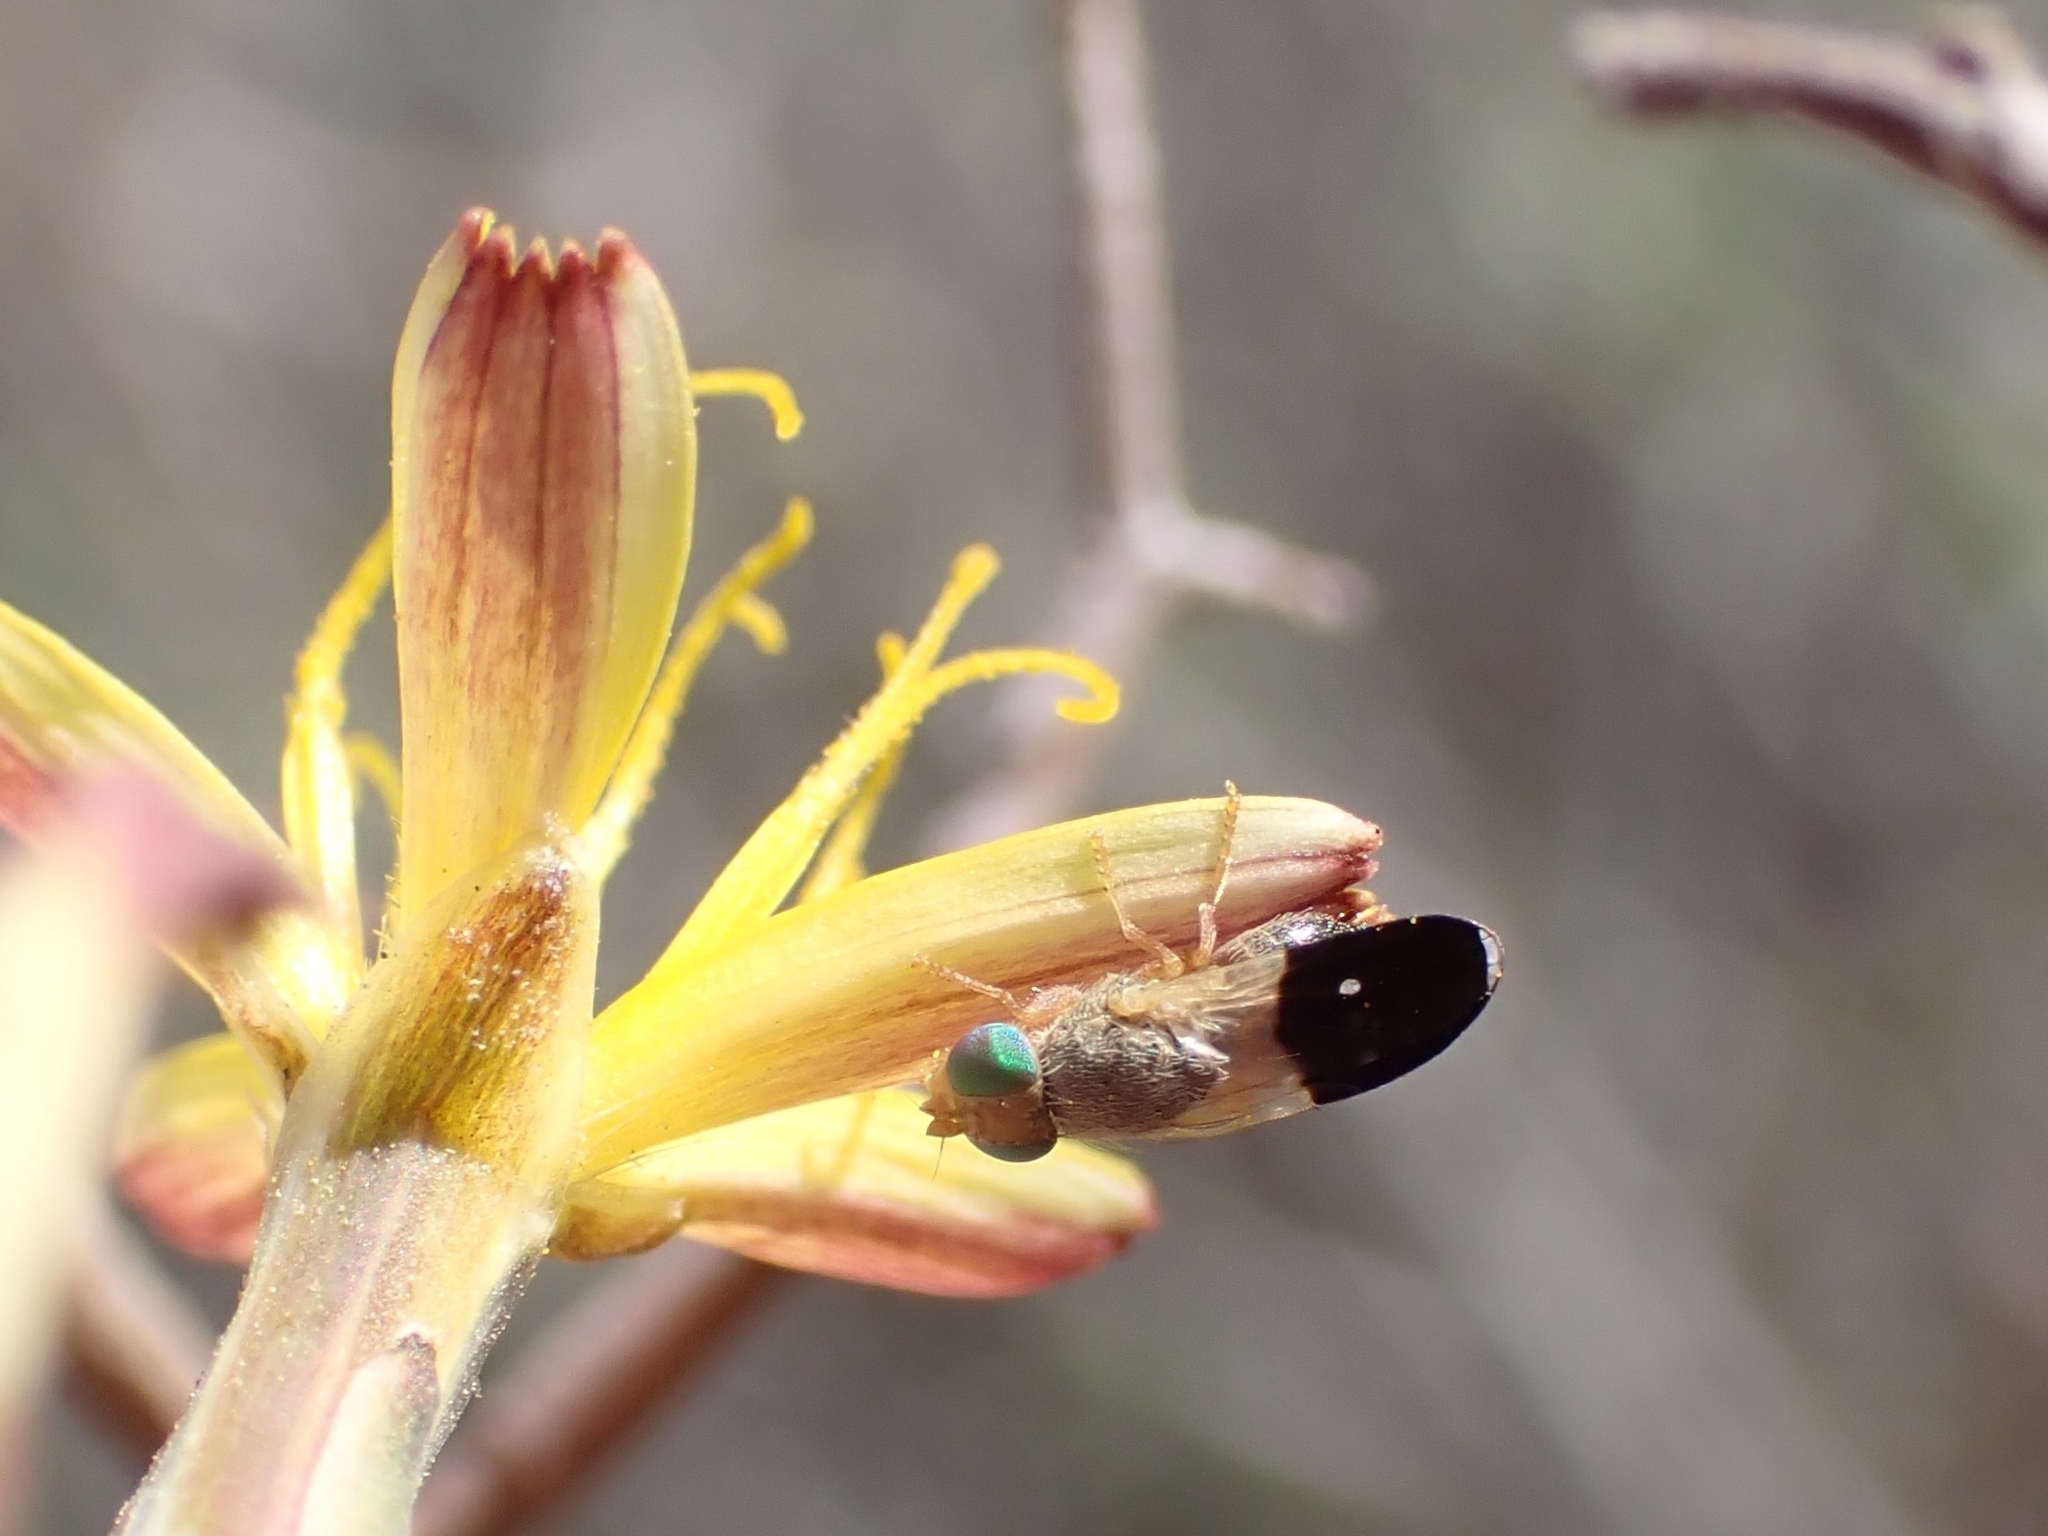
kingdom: Animalia
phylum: Arthropoda
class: Insecta
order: Diptera
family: Tephritidae
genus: Urelliosoma
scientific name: Urelliosoma guimari
